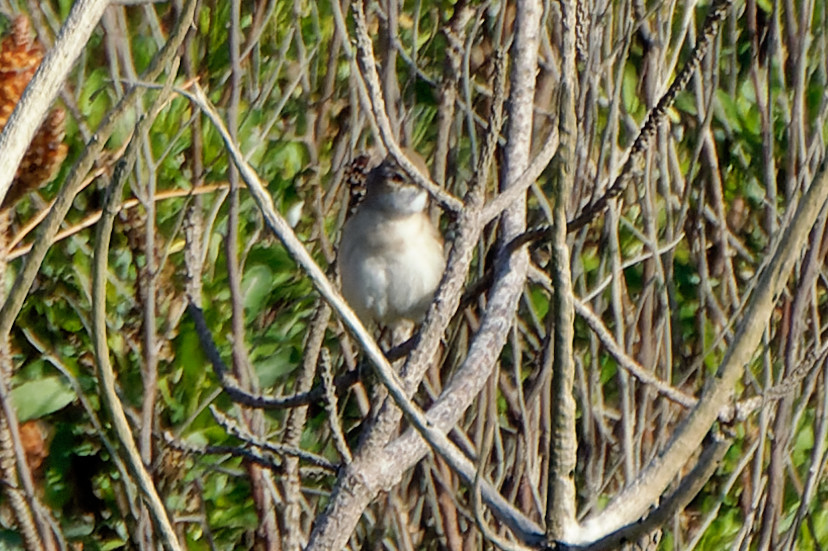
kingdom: Animalia
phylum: Chordata
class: Aves
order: Passeriformes
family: Sylviidae
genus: Sylvia
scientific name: Sylvia communis
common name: Common whitethroat
